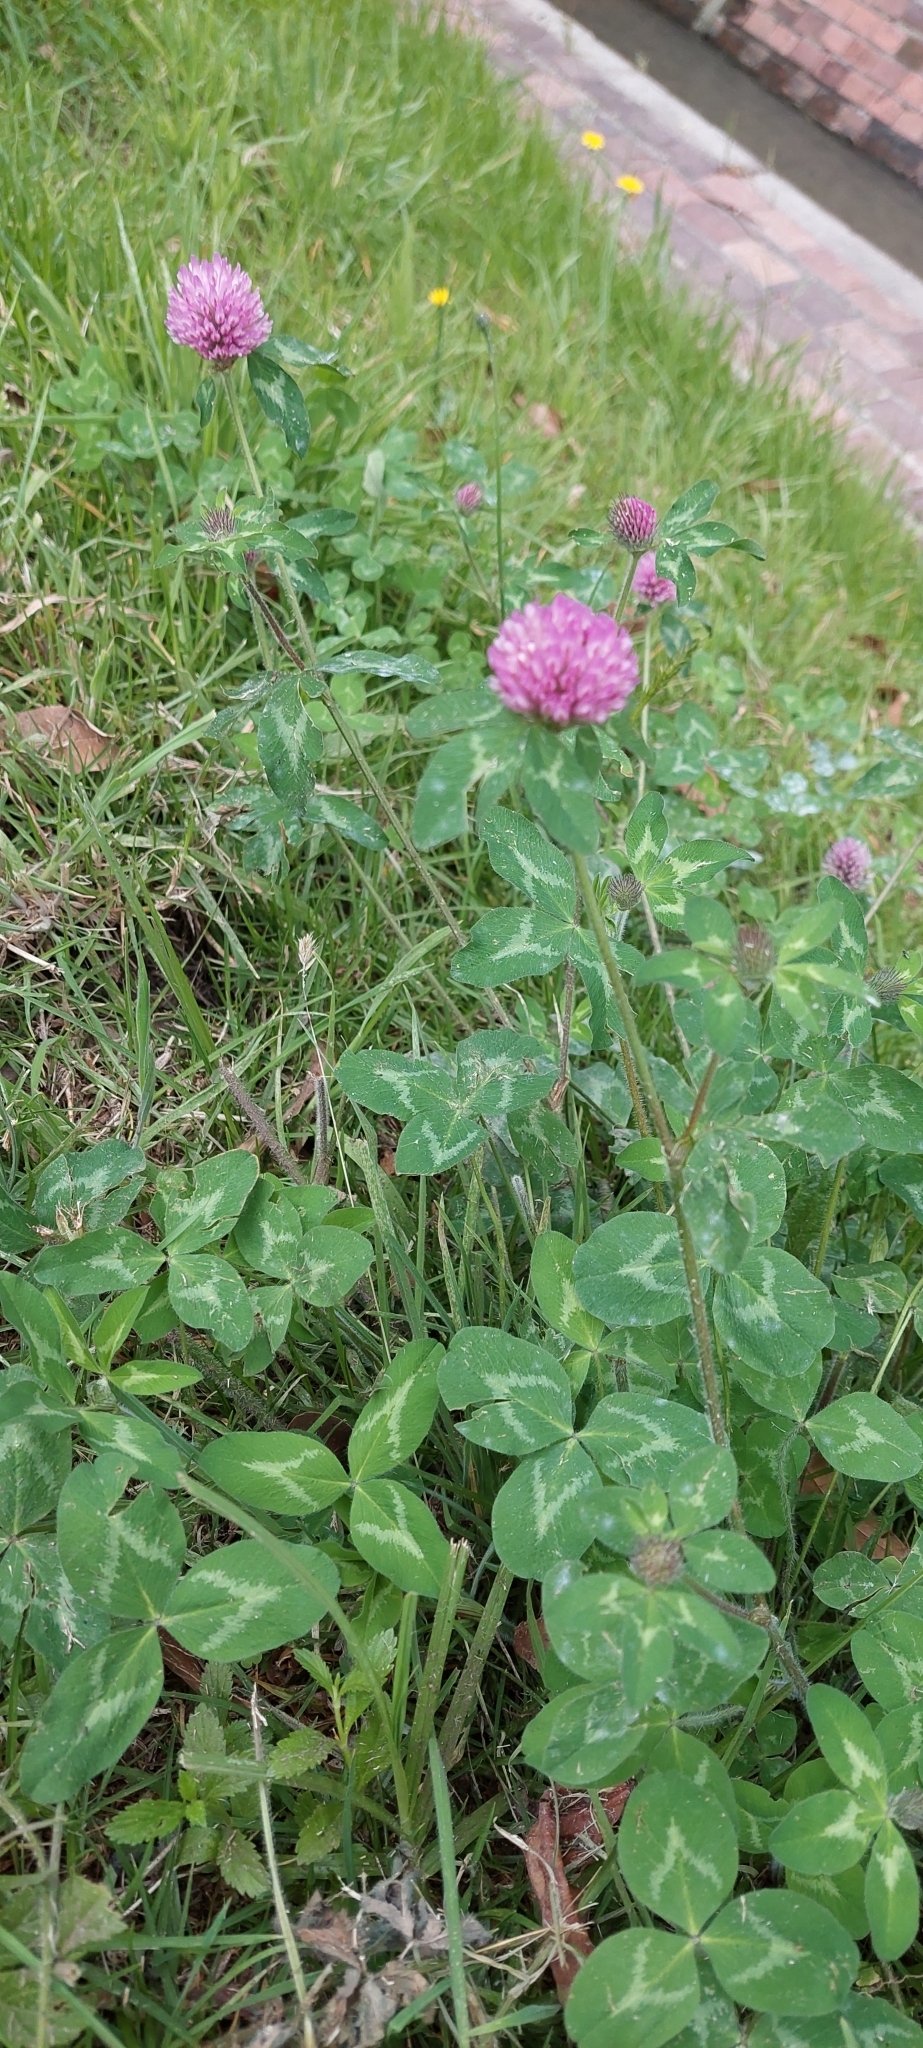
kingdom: Plantae
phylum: Tracheophyta
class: Magnoliopsida
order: Fabales
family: Fabaceae
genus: Trifolium
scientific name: Trifolium pratense
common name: Red clover
